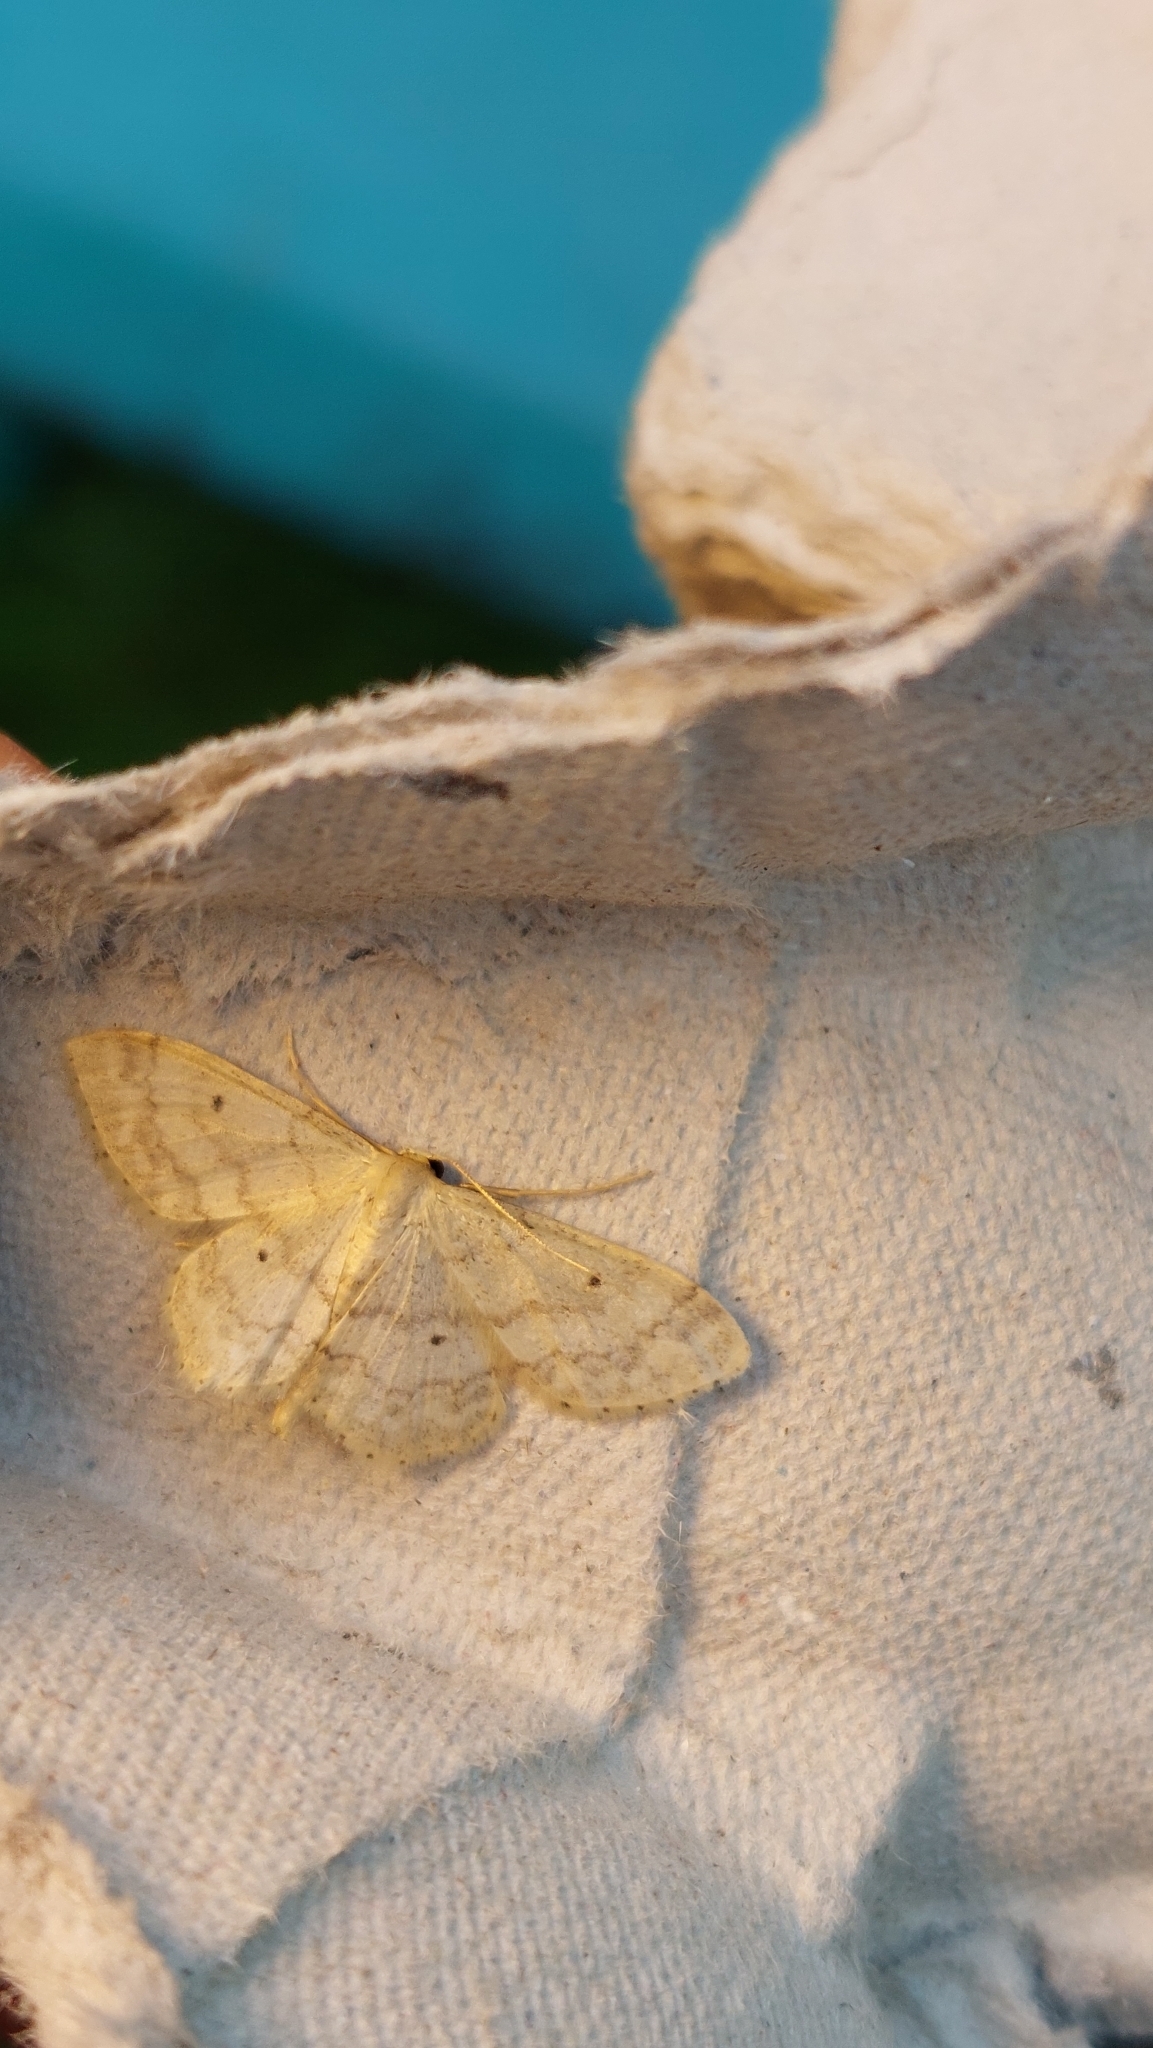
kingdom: Animalia
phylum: Arthropoda
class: Insecta
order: Lepidoptera
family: Geometridae
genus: Idaea
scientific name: Idaea biselata
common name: Small fan-footed wave
